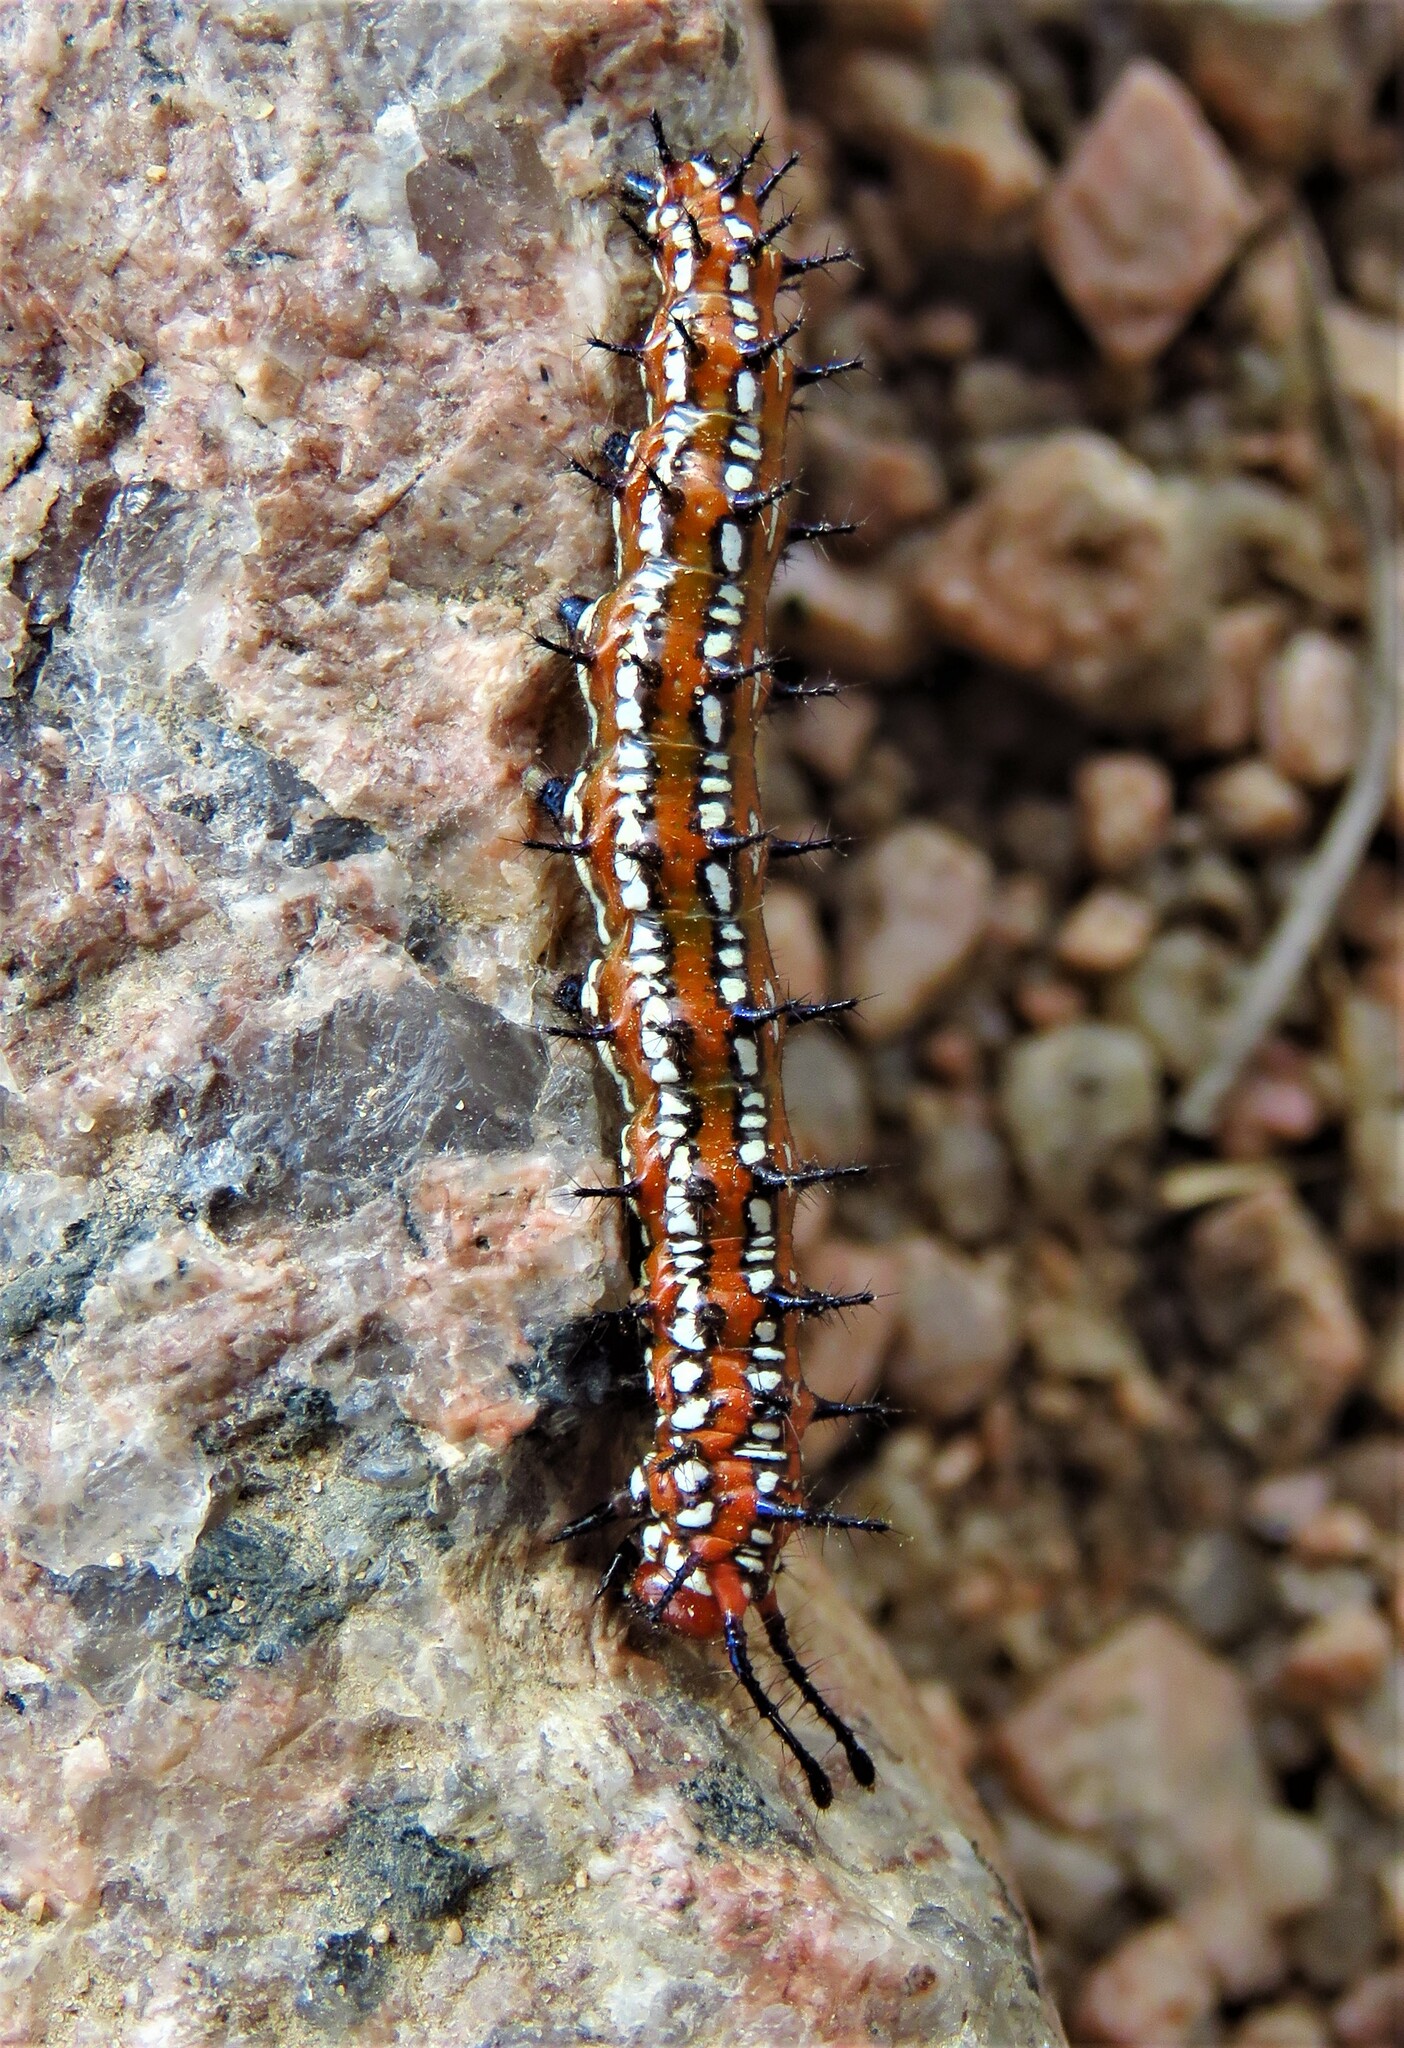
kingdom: Animalia
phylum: Arthropoda
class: Insecta
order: Lepidoptera
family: Nymphalidae
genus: Euptoieta
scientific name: Euptoieta claudia
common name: Variegated fritillary
